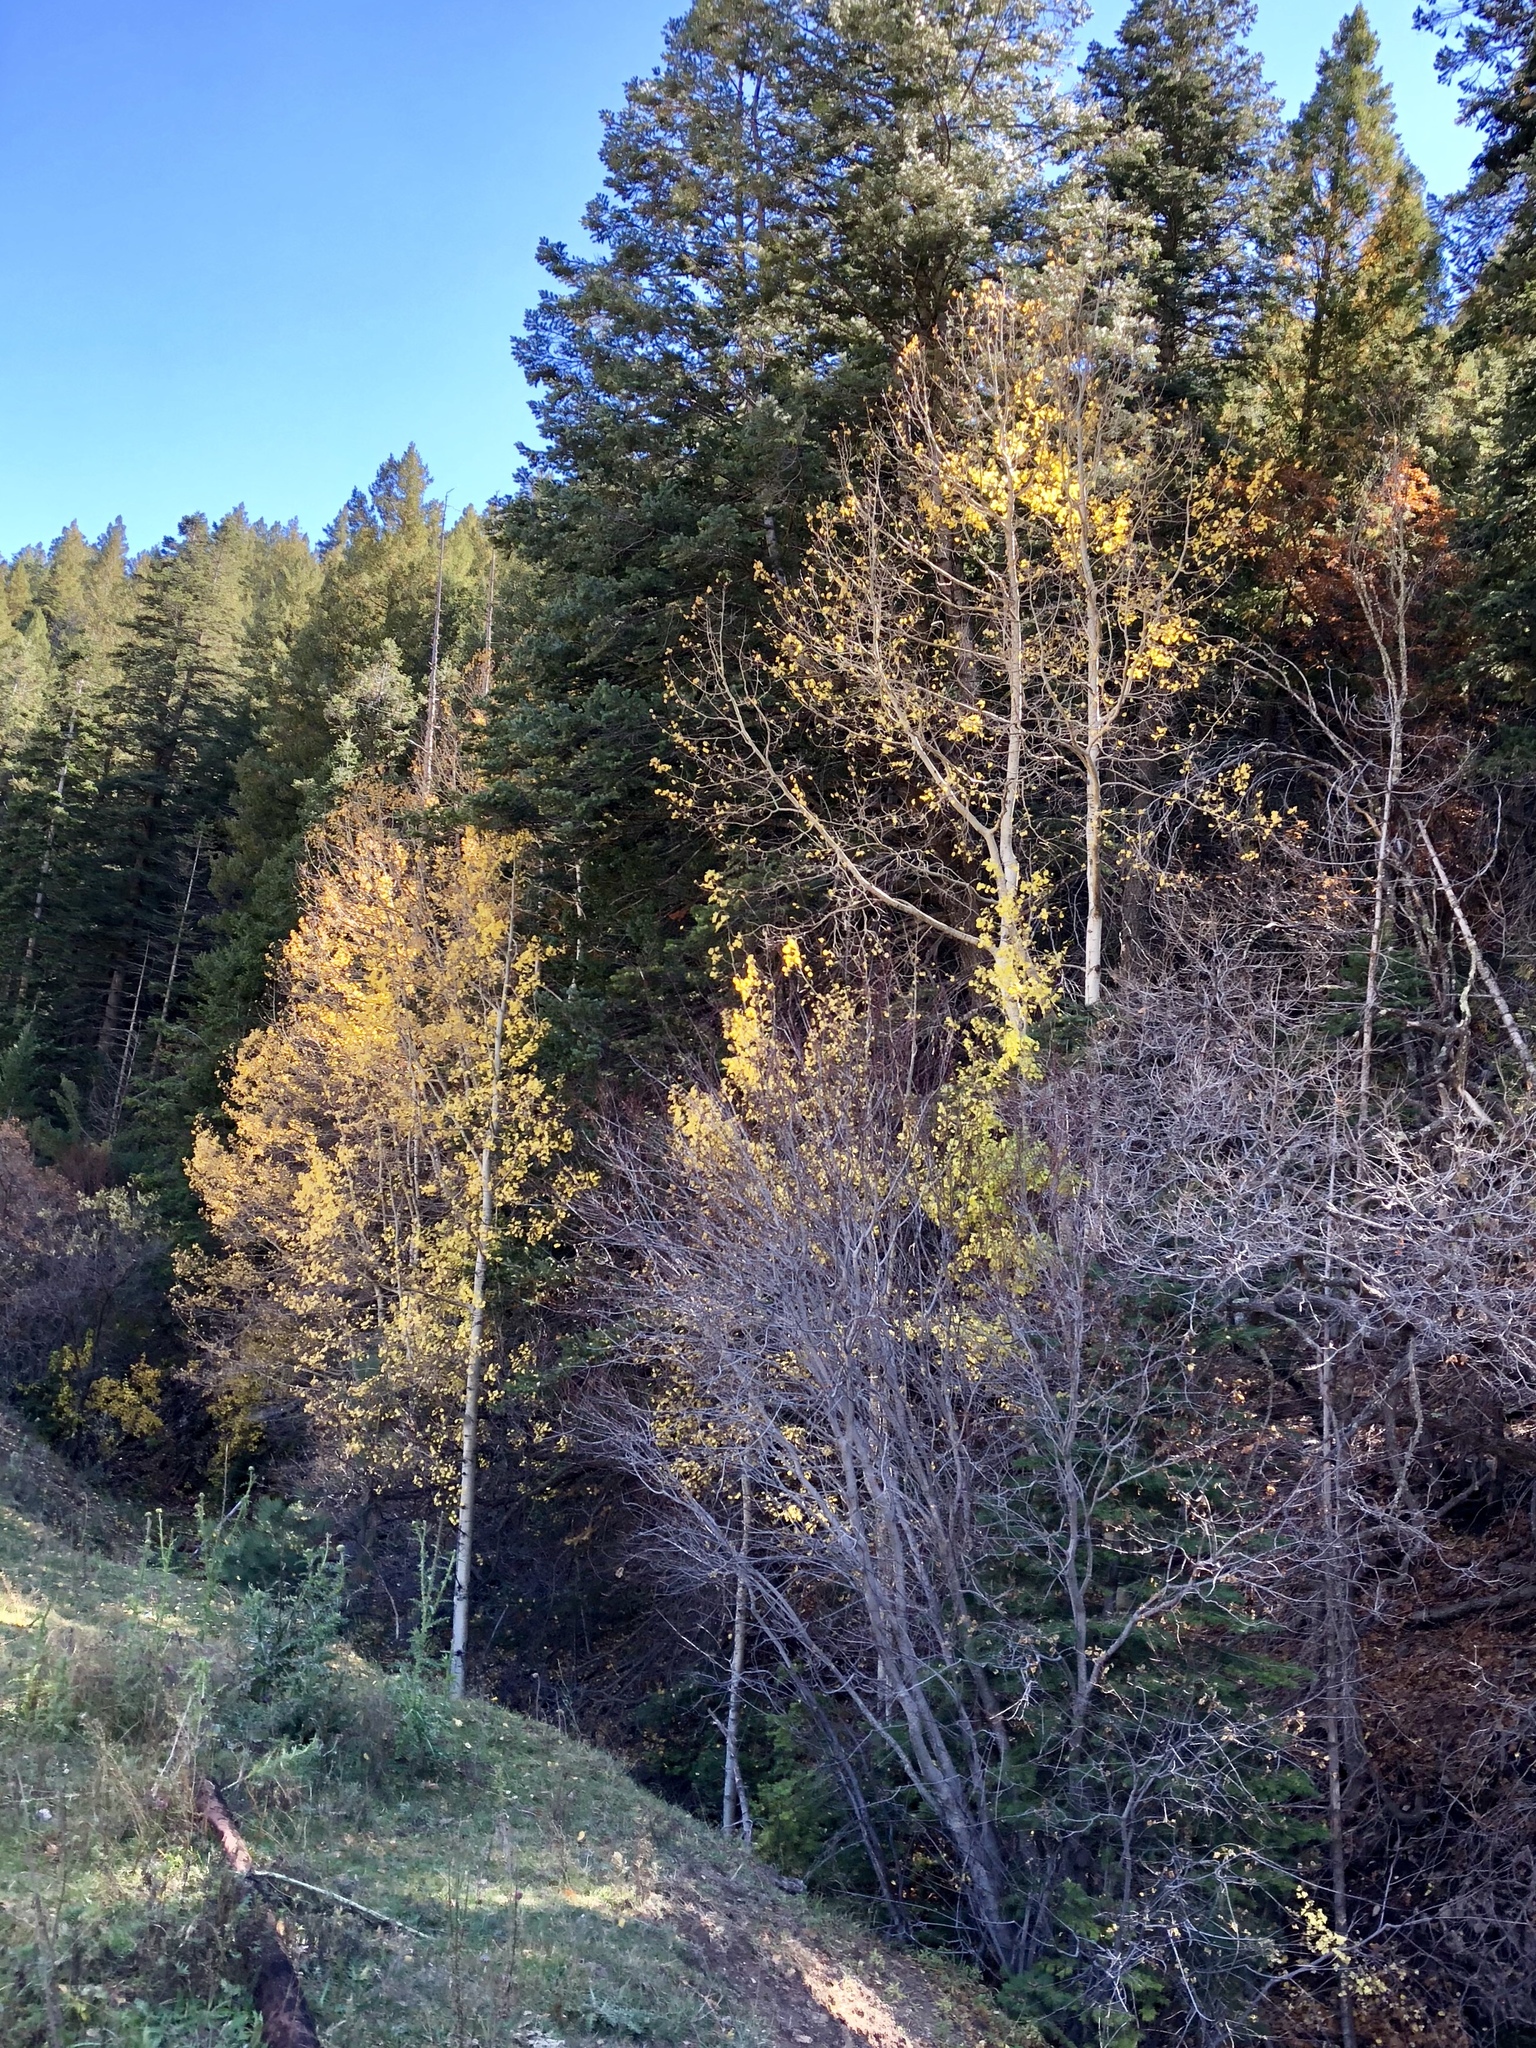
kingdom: Plantae
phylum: Tracheophyta
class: Magnoliopsida
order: Malpighiales
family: Salicaceae
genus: Populus
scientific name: Populus tremuloides
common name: Quaking aspen
